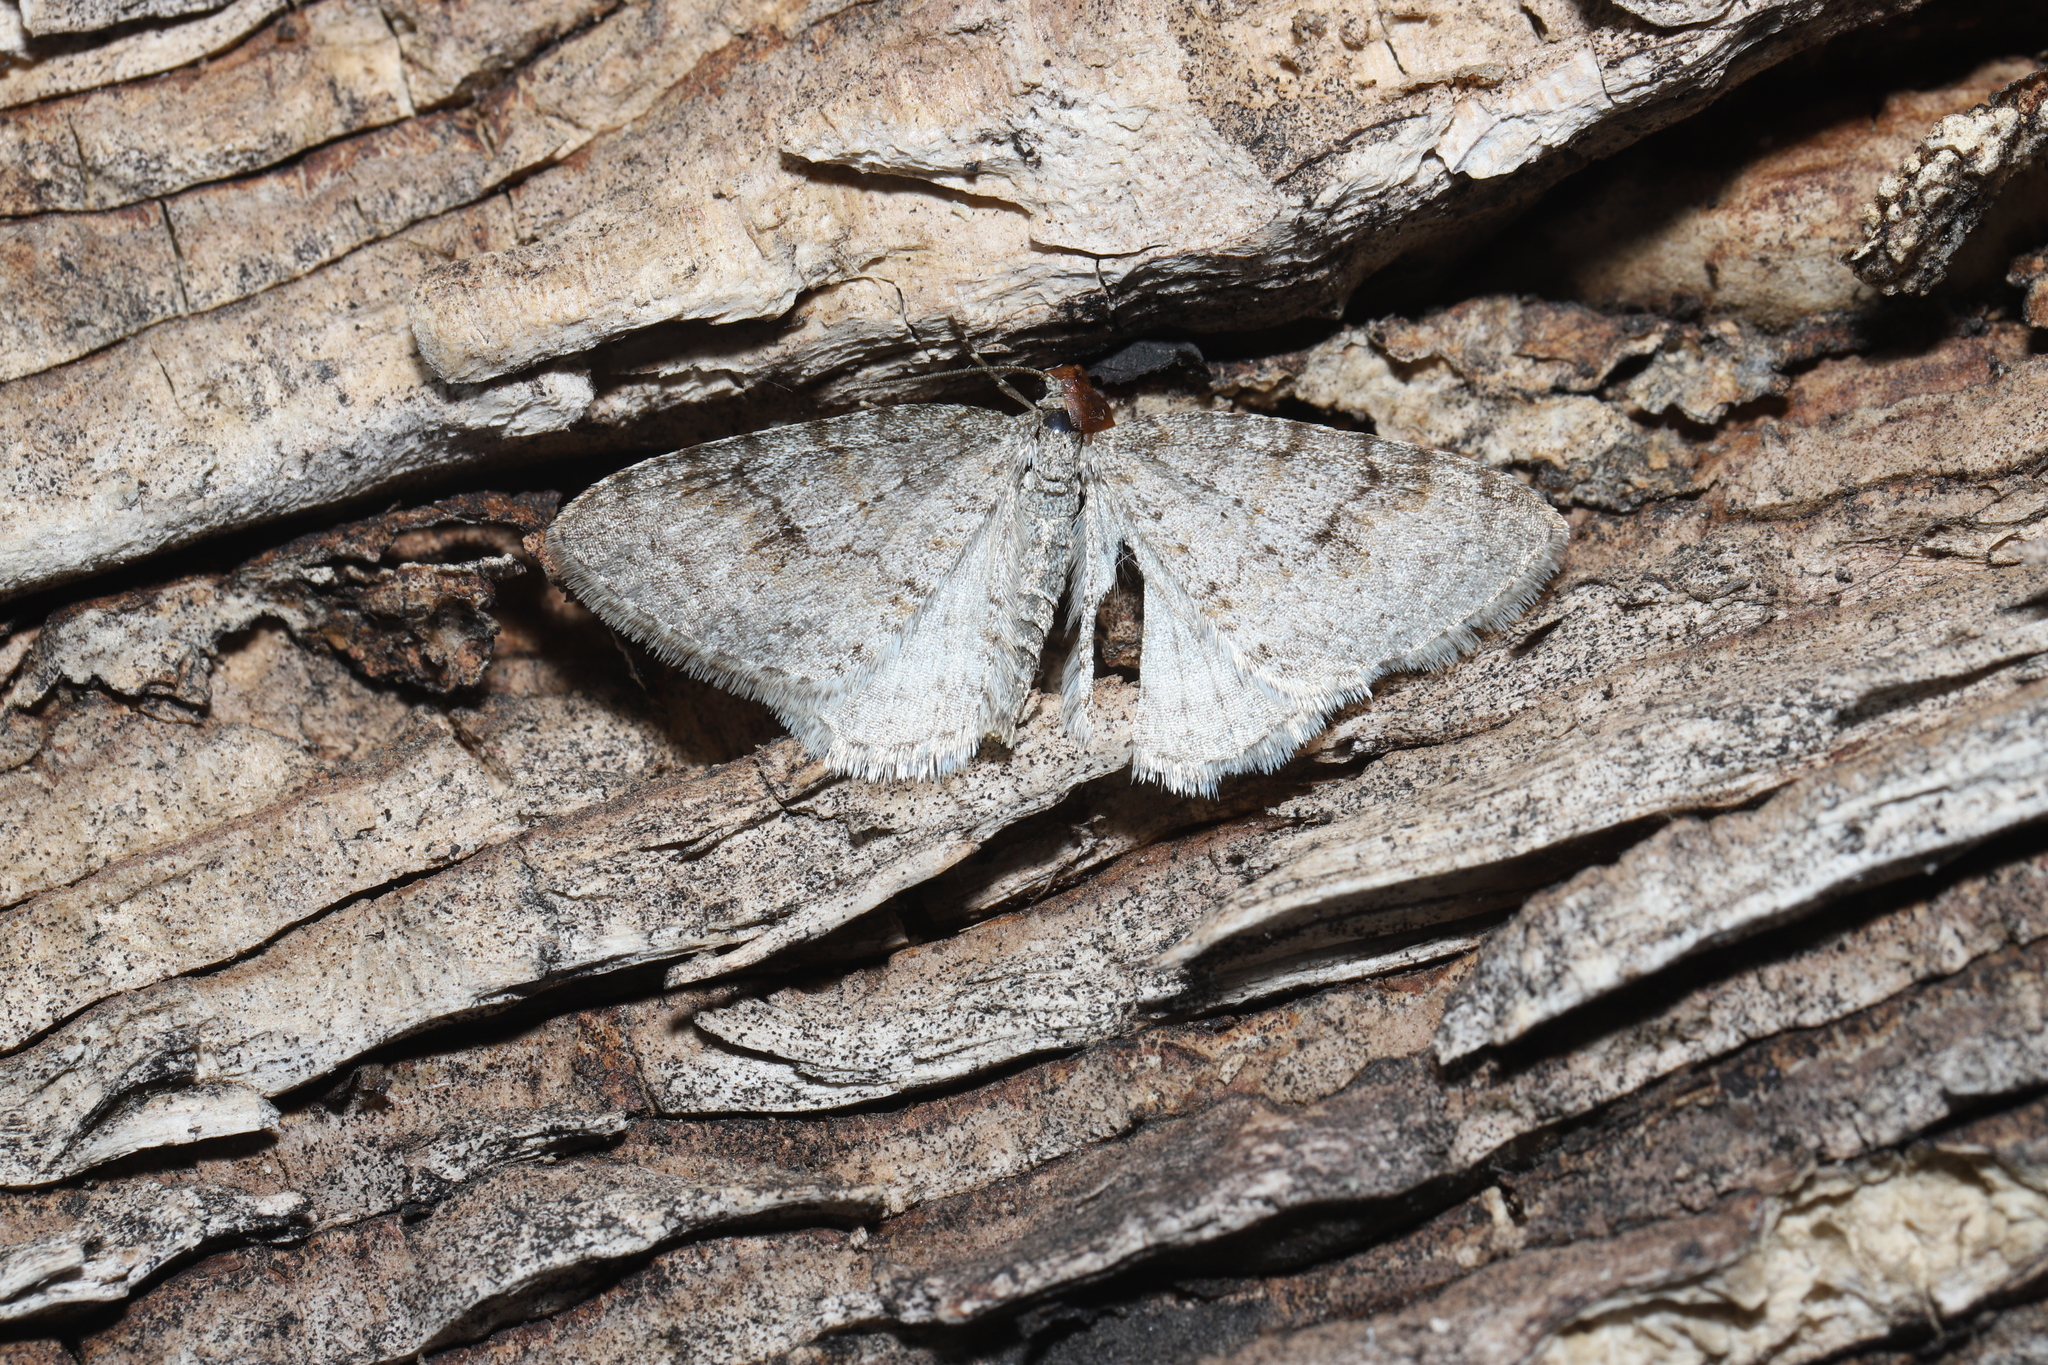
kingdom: Animalia
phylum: Arthropoda
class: Insecta
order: Lepidoptera
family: Geometridae
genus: Venusia
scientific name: Venusia comptaria
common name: Brown-shaded carpet
